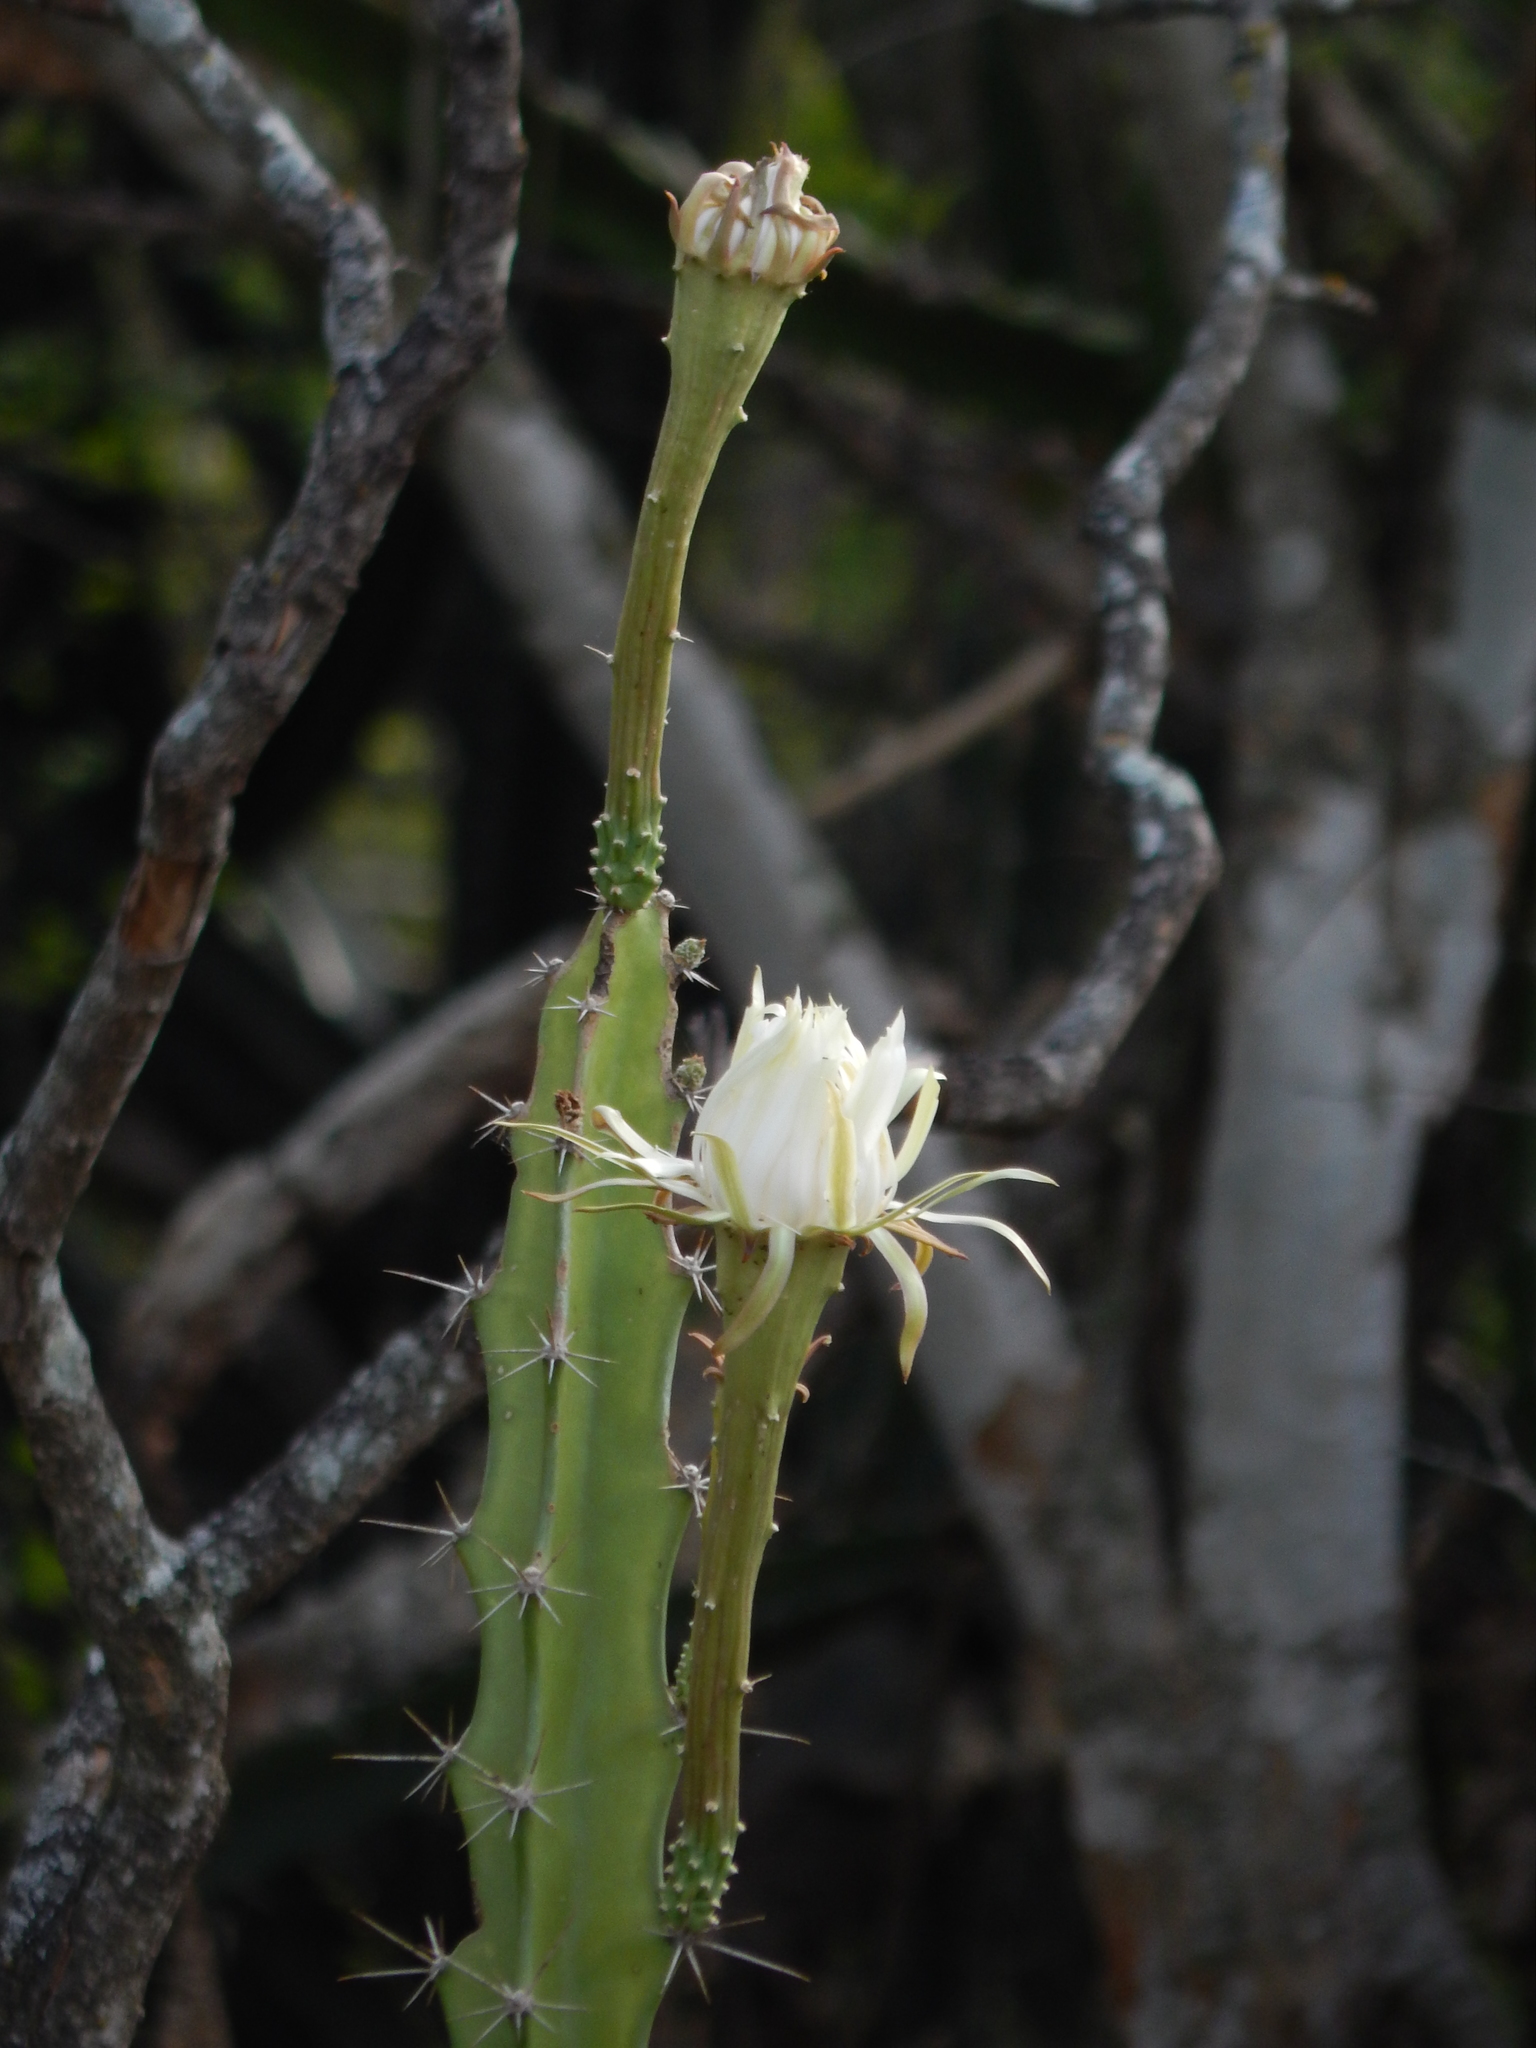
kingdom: Plantae
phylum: Tracheophyta
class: Magnoliopsida
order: Caryophyllales
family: Cactaceae
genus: Acanthocereus
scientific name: Acanthocereus tetragonus
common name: Triangle cactus
